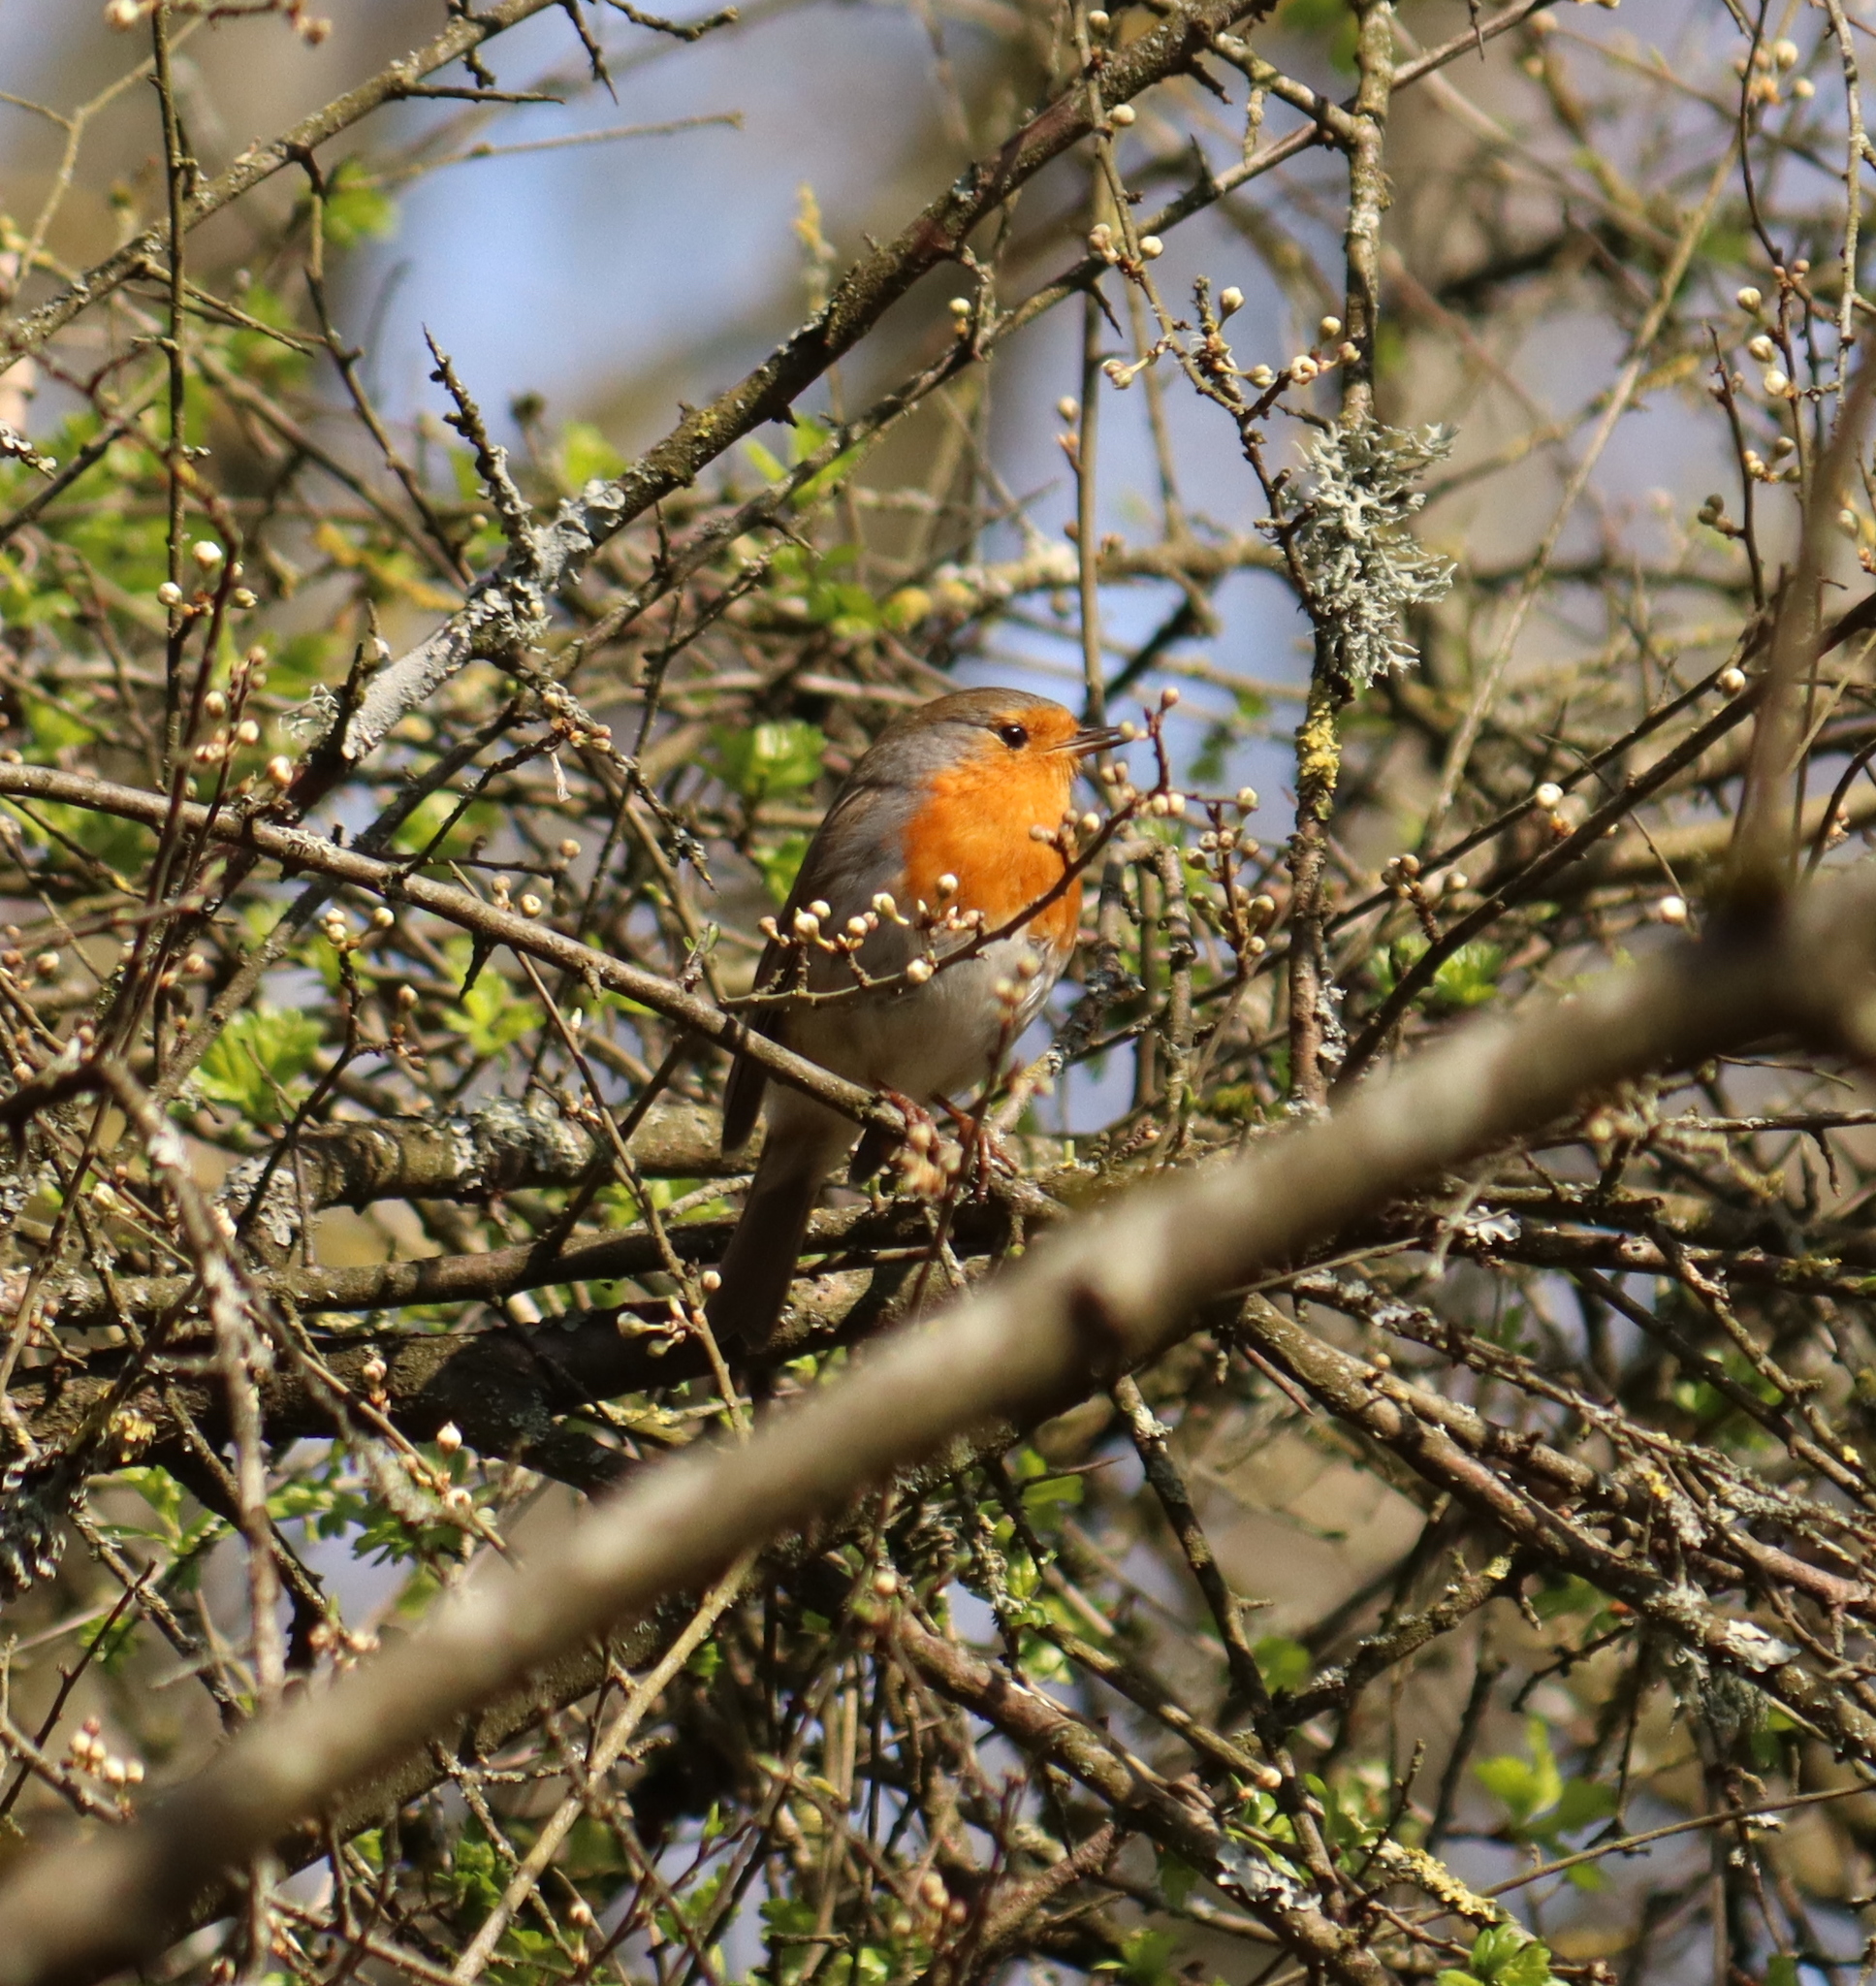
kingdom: Animalia
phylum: Chordata
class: Aves
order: Passeriformes
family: Muscicapidae
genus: Erithacus
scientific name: Erithacus rubecula
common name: European robin
